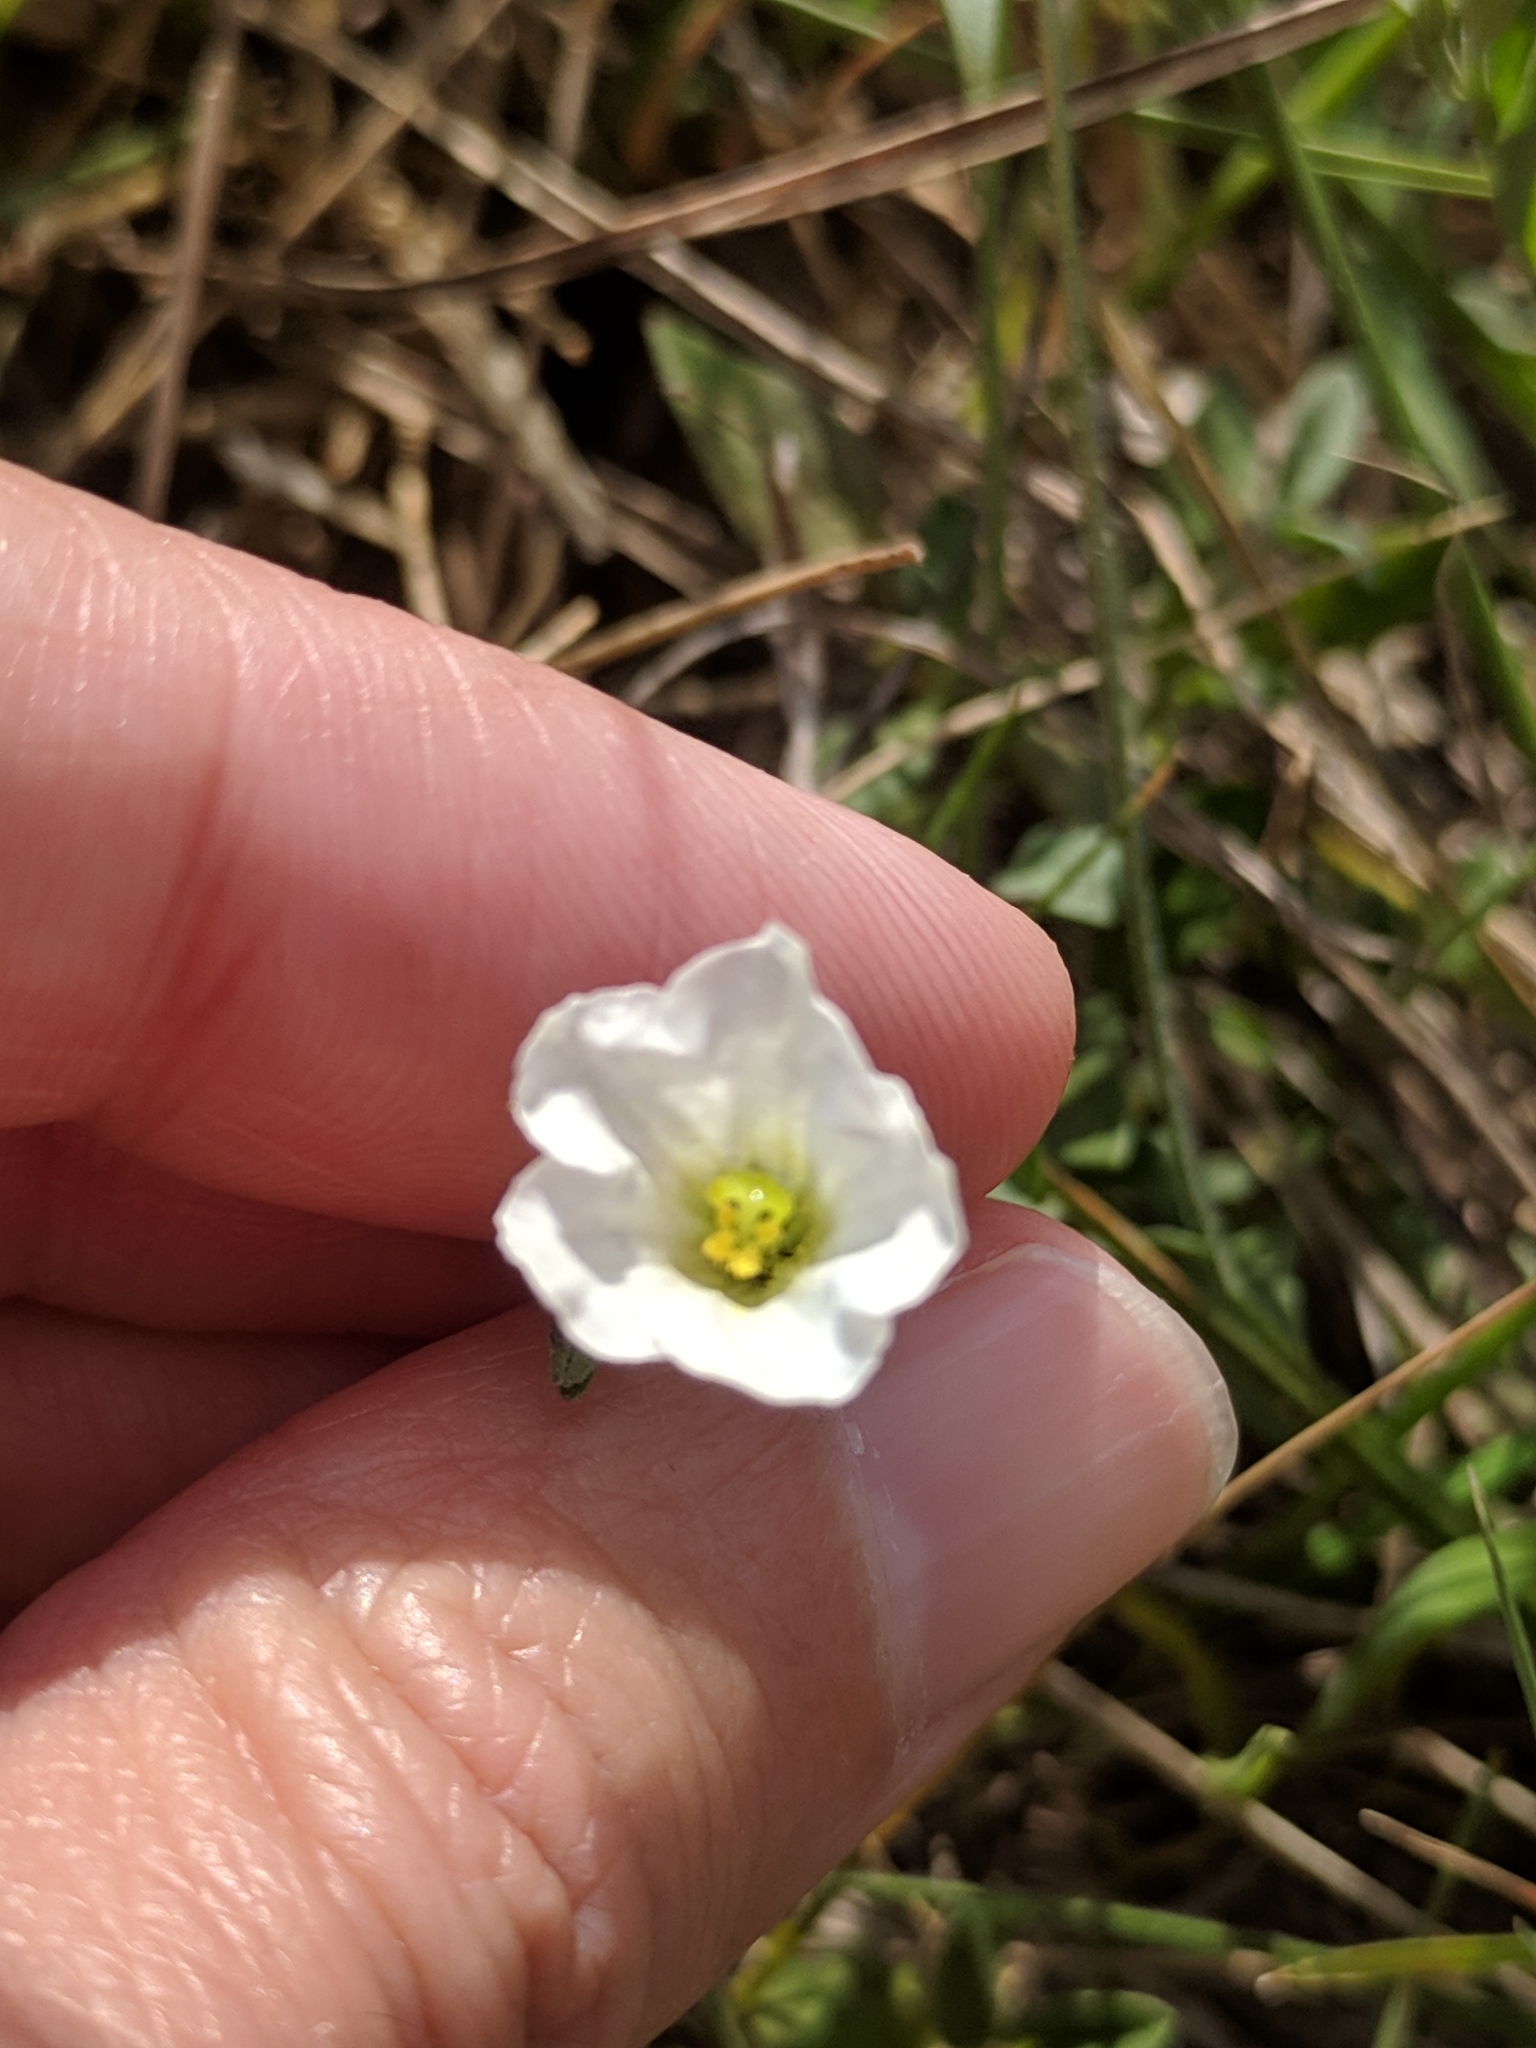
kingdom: Plantae
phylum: Tracheophyta
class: Magnoliopsida
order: Solanales
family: Solanaceae
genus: Salpiglossis
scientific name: Salpiglossis erecta
